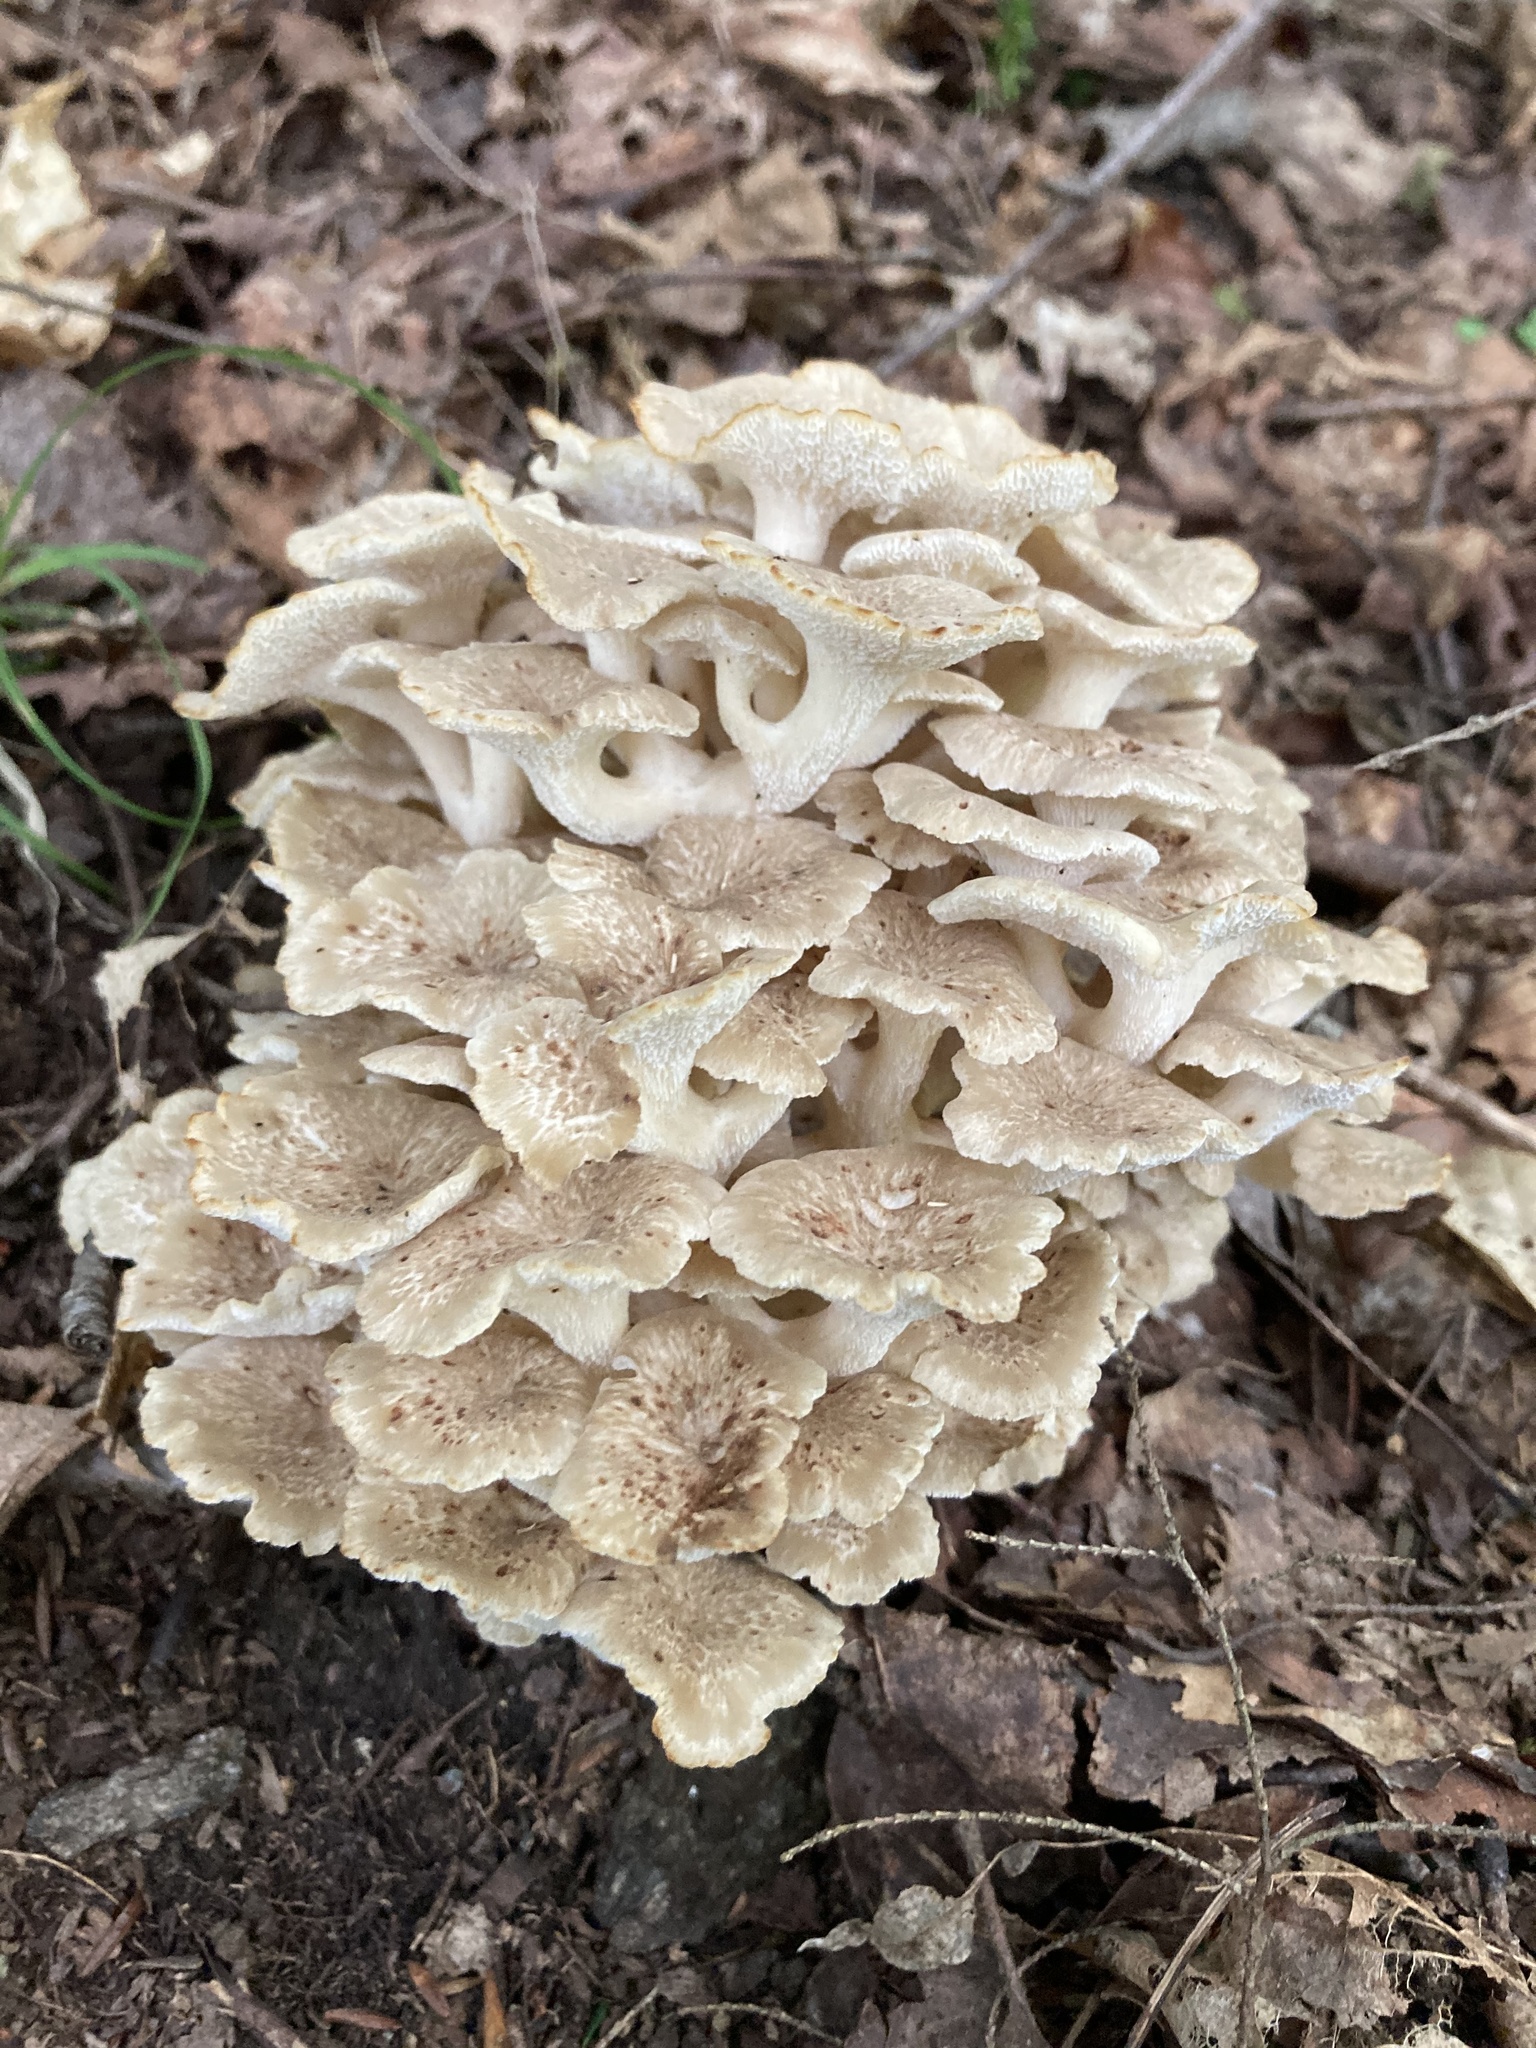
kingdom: Fungi
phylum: Basidiomycota
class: Agaricomycetes
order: Polyporales
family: Polyporaceae
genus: Polyporus
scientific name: Polyporus umbellatus
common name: Umbrella polypore
